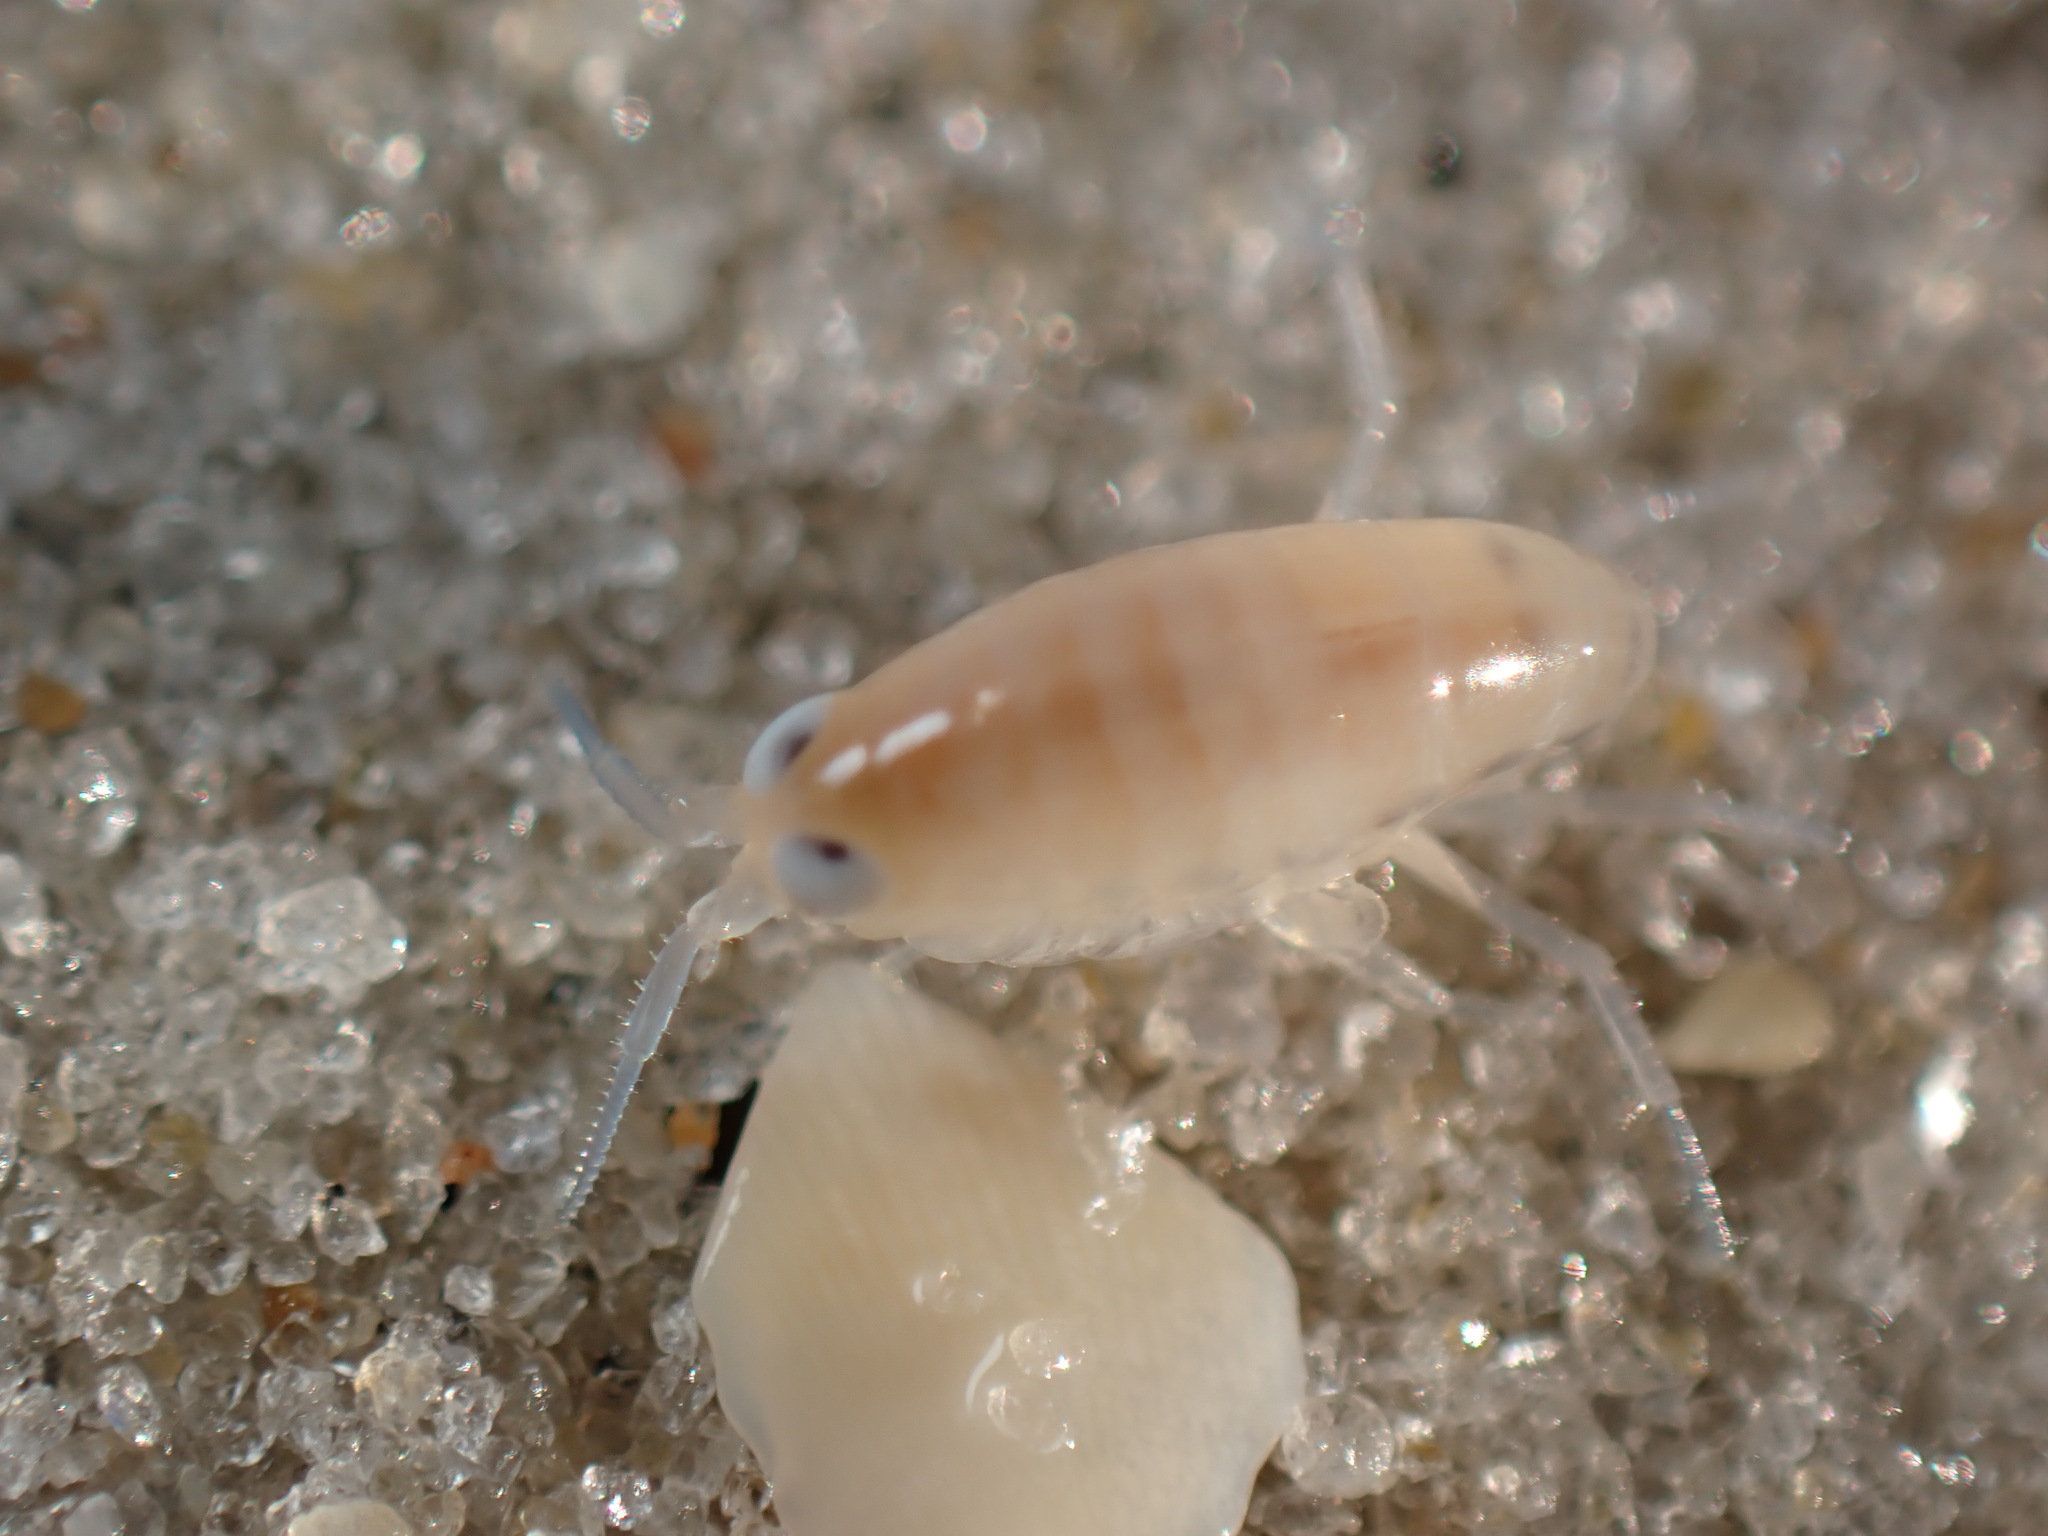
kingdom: Animalia
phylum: Arthropoda
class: Malacostraca
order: Amphipoda
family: Talitridae
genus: Americorchestia
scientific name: Americorchestia megalophthalma
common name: Northern big-eyed sandhopper
